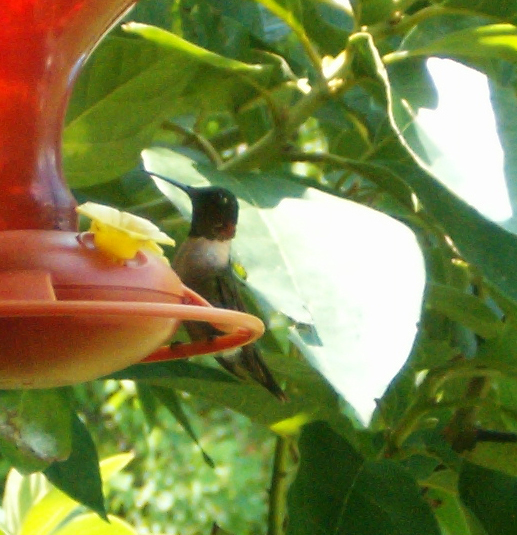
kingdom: Animalia
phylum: Chordata
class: Aves
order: Apodiformes
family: Trochilidae
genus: Archilochus
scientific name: Archilochus colubris
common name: Ruby-throated hummingbird
